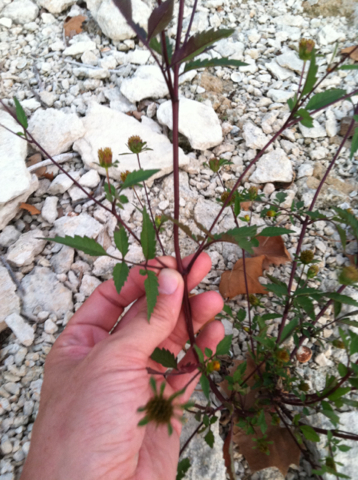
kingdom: Plantae
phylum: Tracheophyta
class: Magnoliopsida
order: Asterales
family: Asteraceae
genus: Bidens
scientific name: Bidens frondosa
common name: Beggarticks
